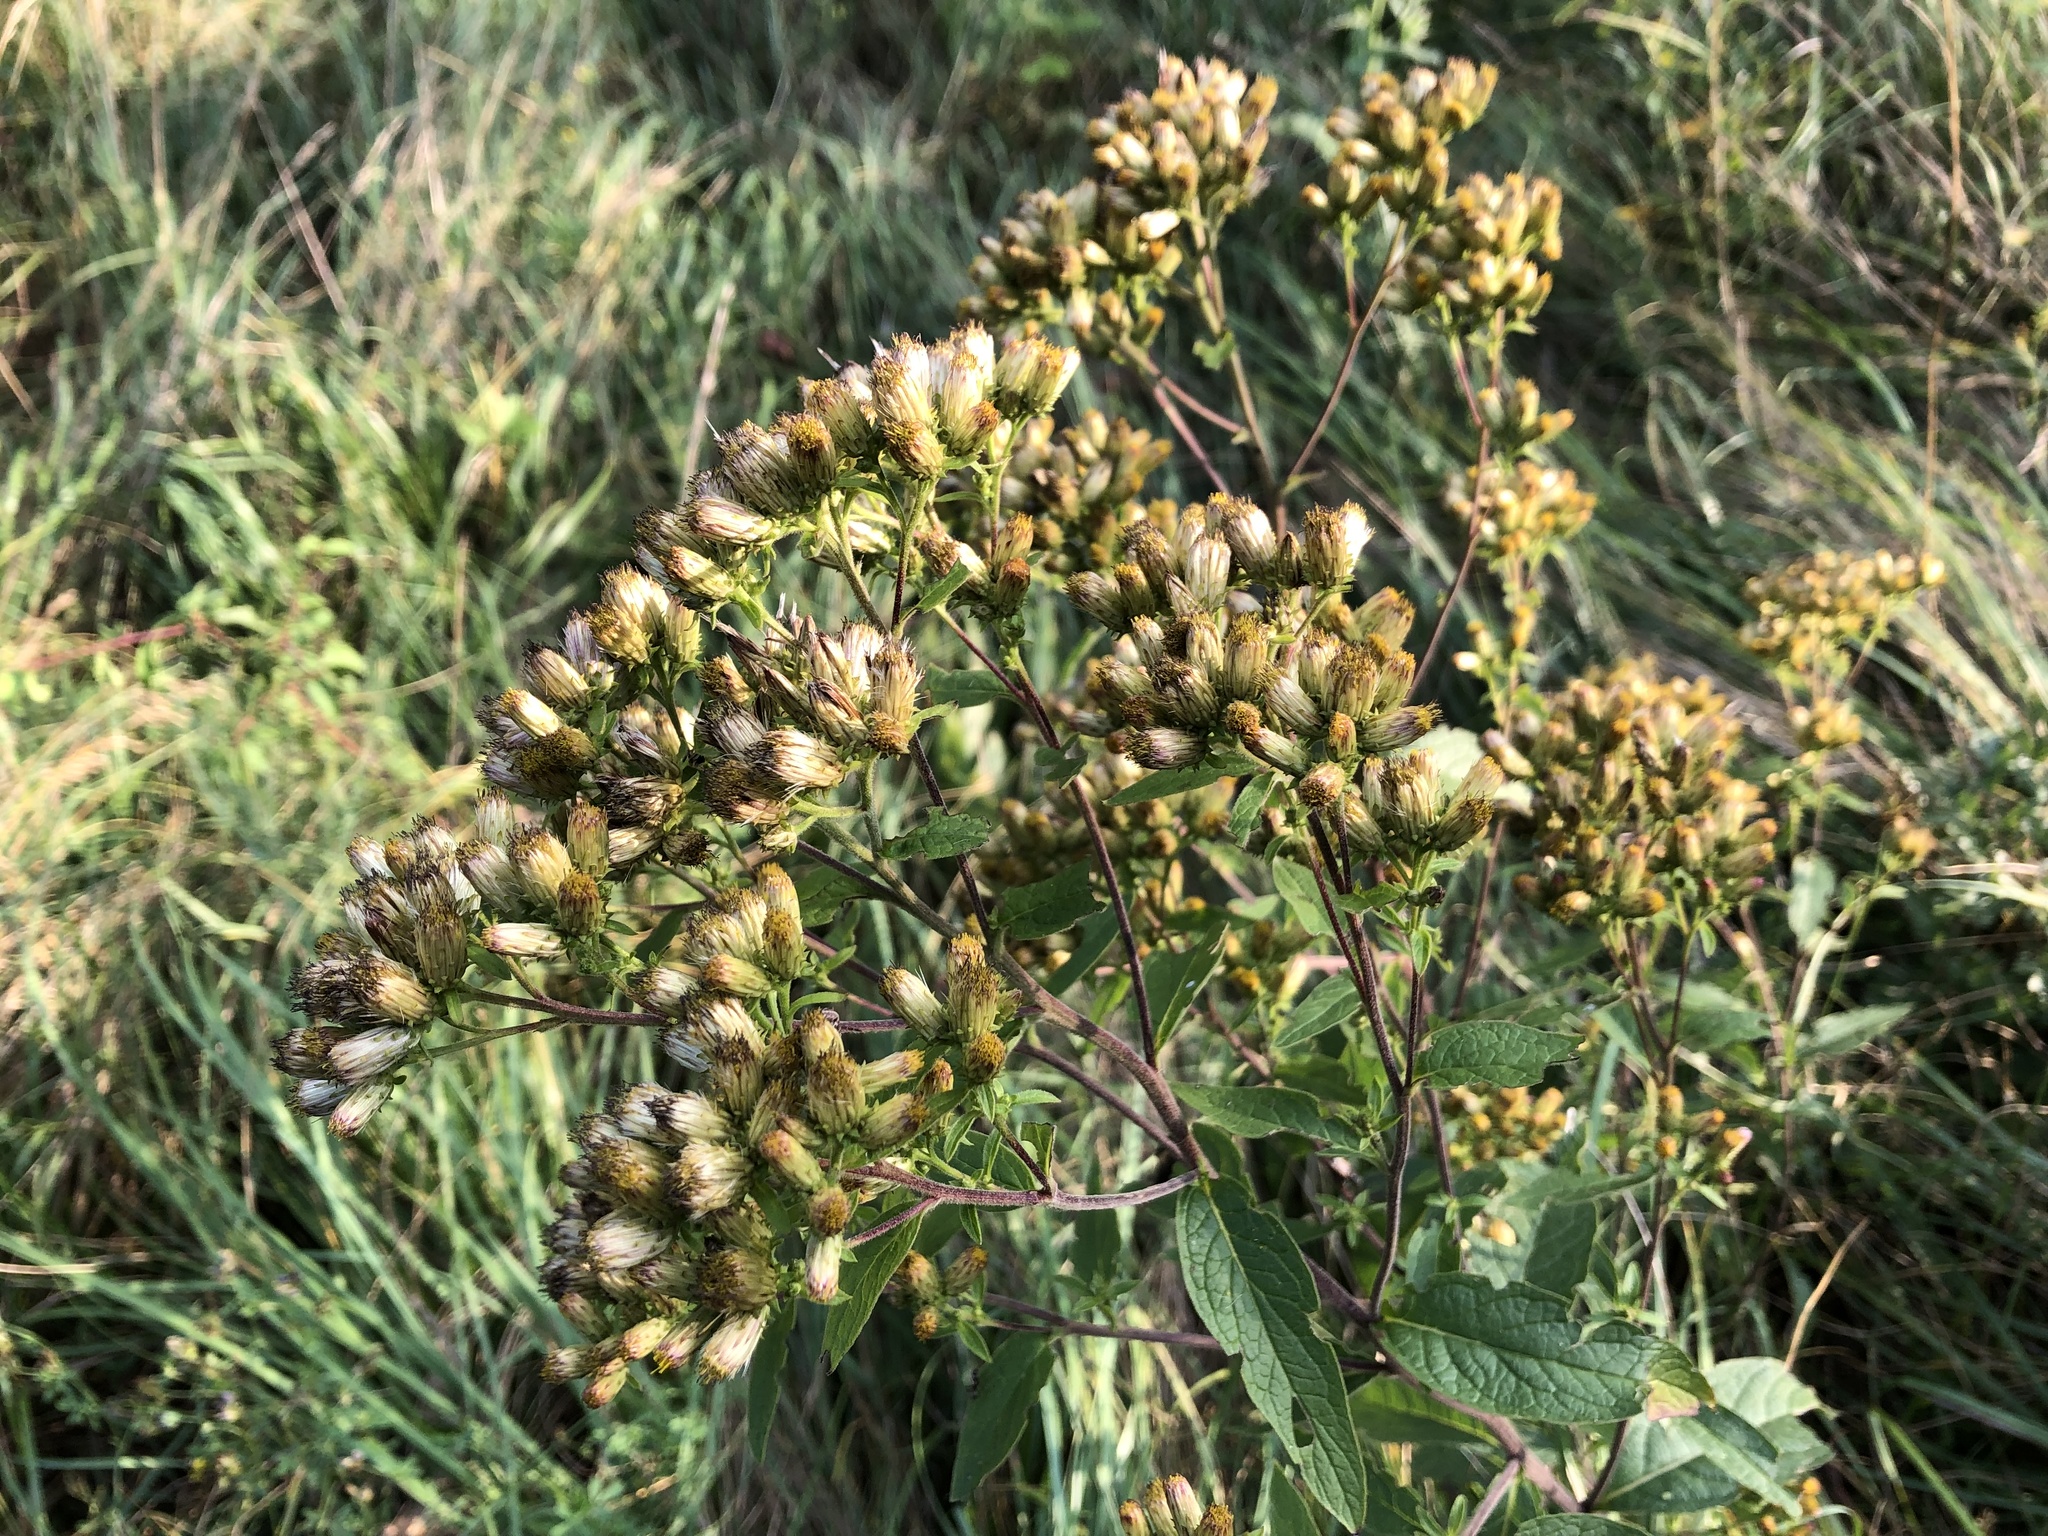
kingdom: Plantae
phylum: Tracheophyta
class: Magnoliopsida
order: Asterales
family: Asteraceae
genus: Pentanema
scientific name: Pentanema squarrosum
